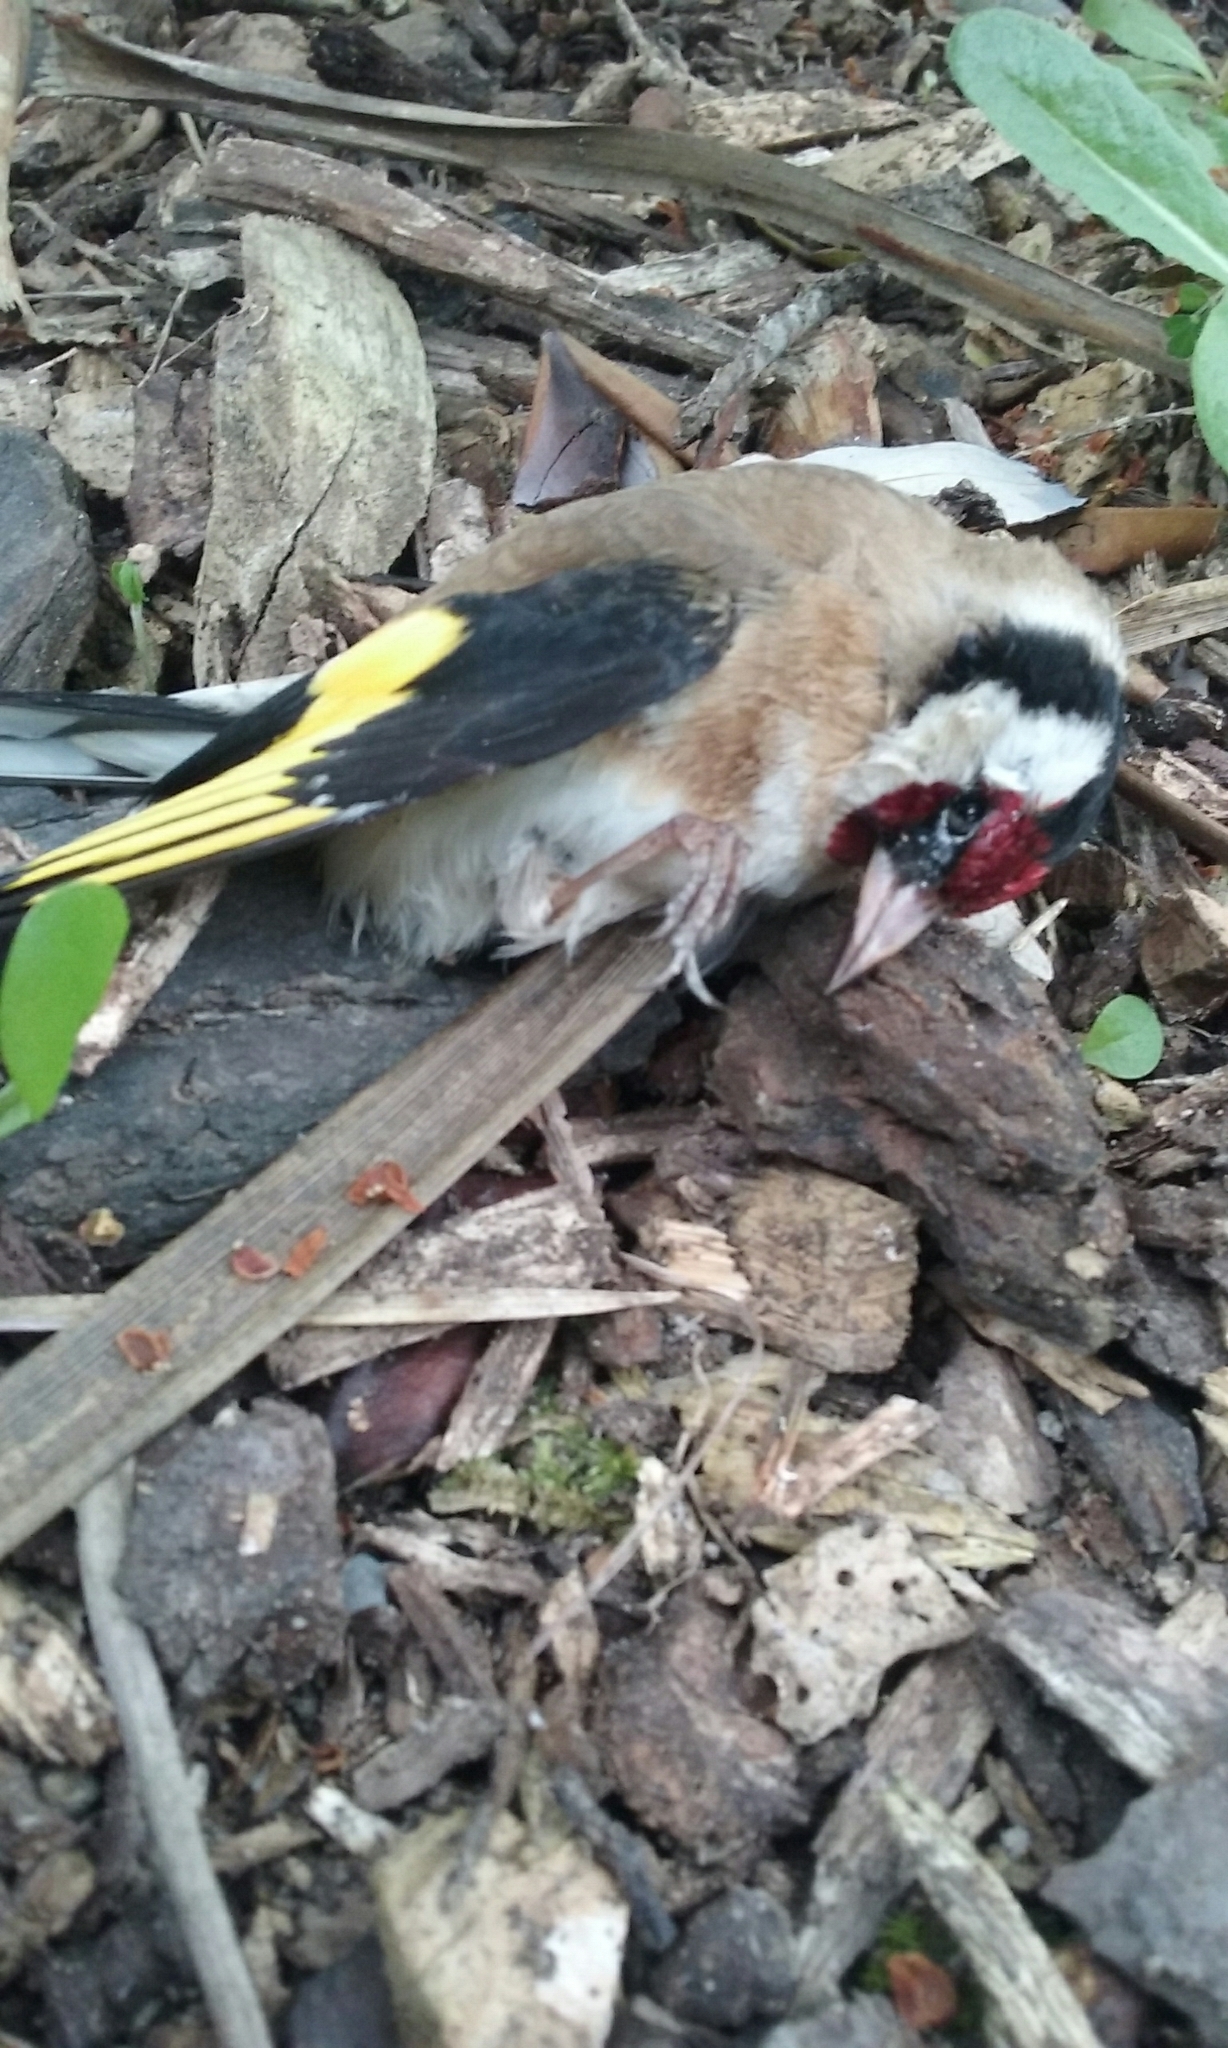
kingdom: Animalia
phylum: Chordata
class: Aves
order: Passeriformes
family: Fringillidae
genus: Carduelis
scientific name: Carduelis carduelis
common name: European goldfinch
